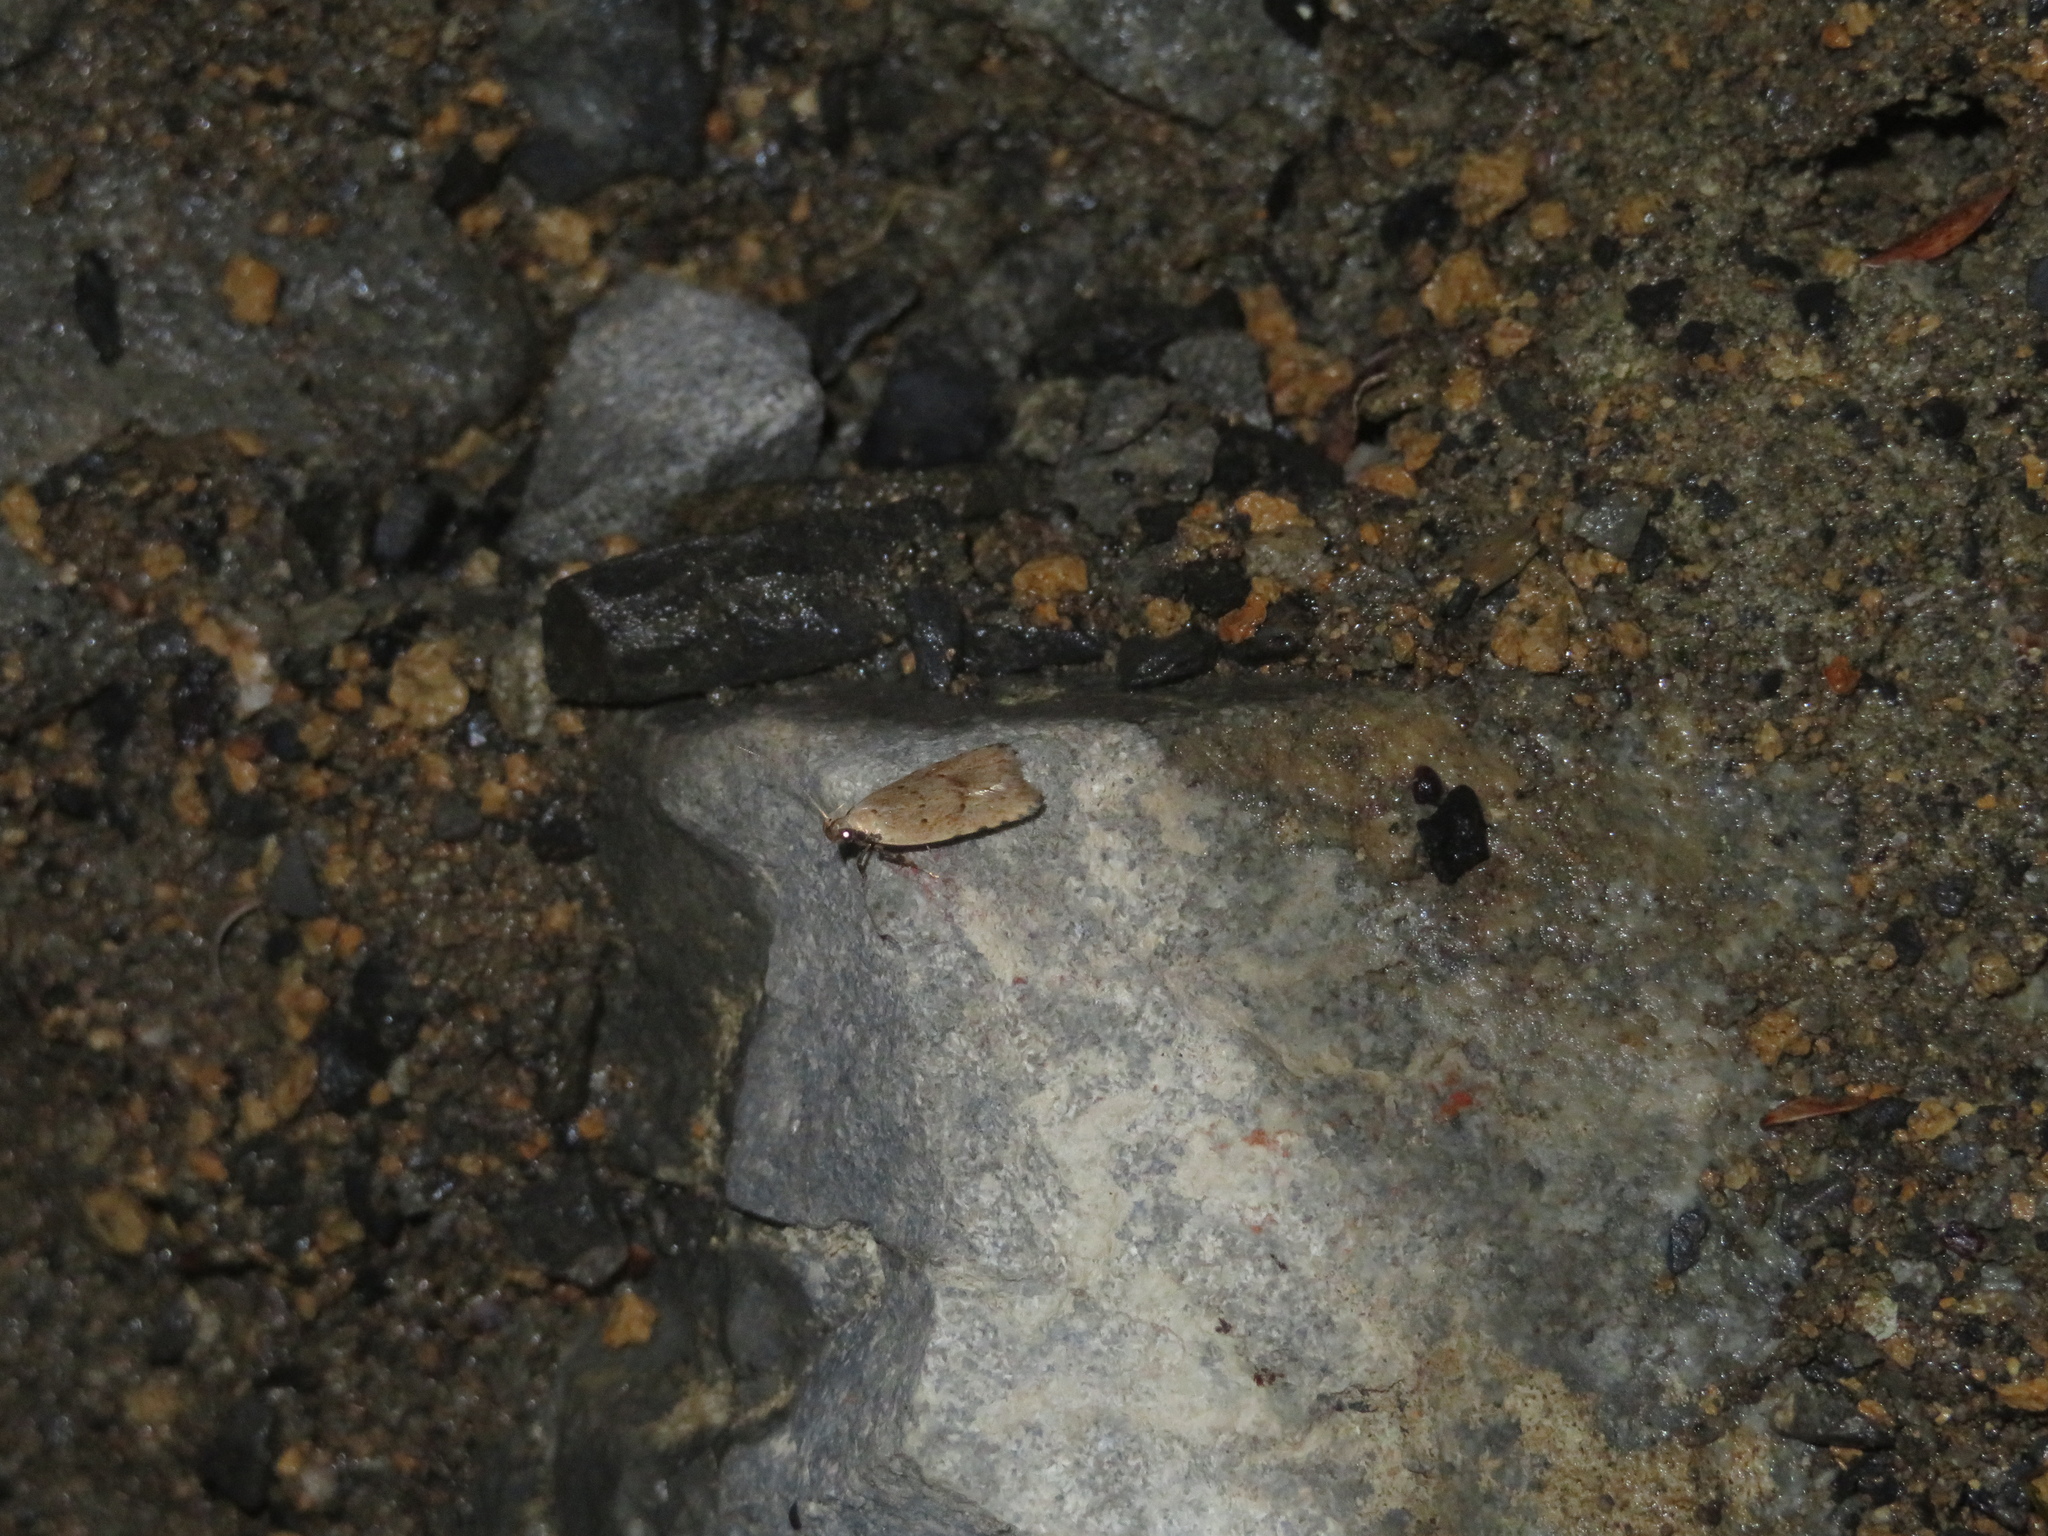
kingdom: Animalia
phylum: Arthropoda
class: Insecta
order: Lepidoptera
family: Oecophoridae
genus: Gymnobathra
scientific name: Gymnobathra calliploca
